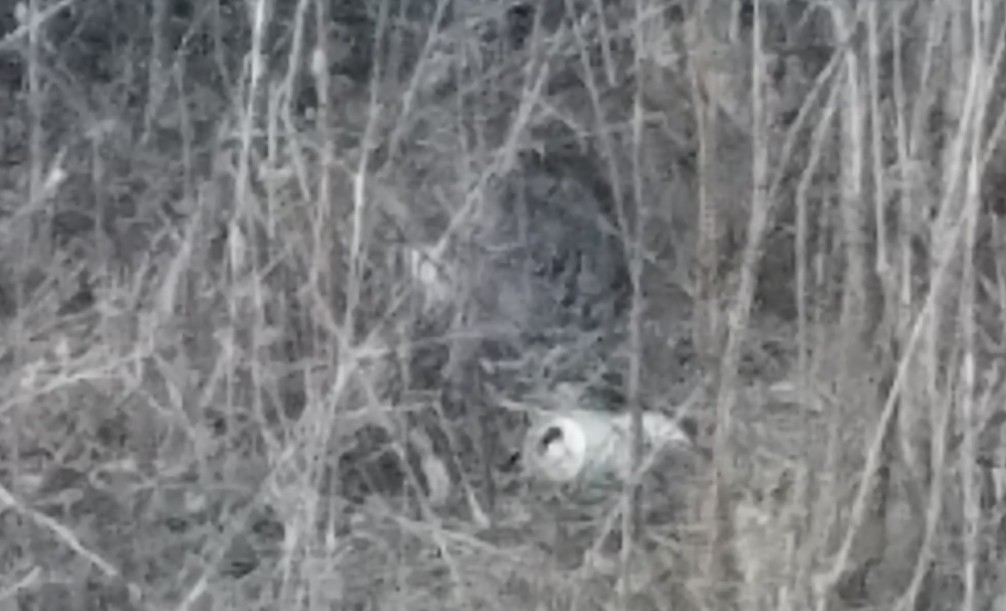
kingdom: Animalia
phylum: Chordata
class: Mammalia
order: Lagomorpha
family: Leporidae
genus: Sylvilagus
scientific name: Sylvilagus floridanus
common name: Eastern cottontail
